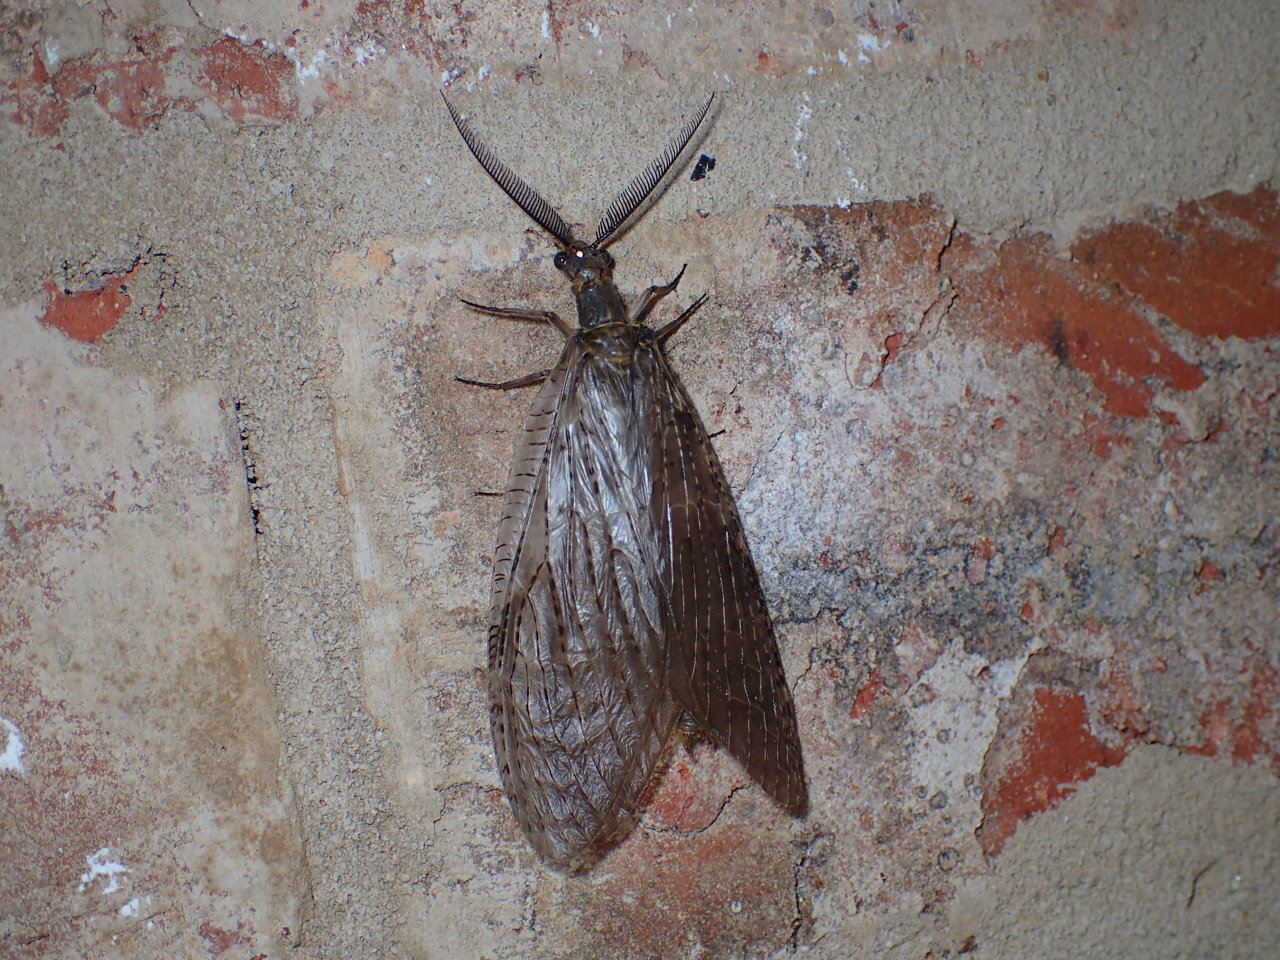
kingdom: Animalia
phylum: Arthropoda
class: Insecta
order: Megaloptera
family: Corydalidae
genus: Chauliodes
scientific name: Chauliodes pectinicornis
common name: Summer fishfly
